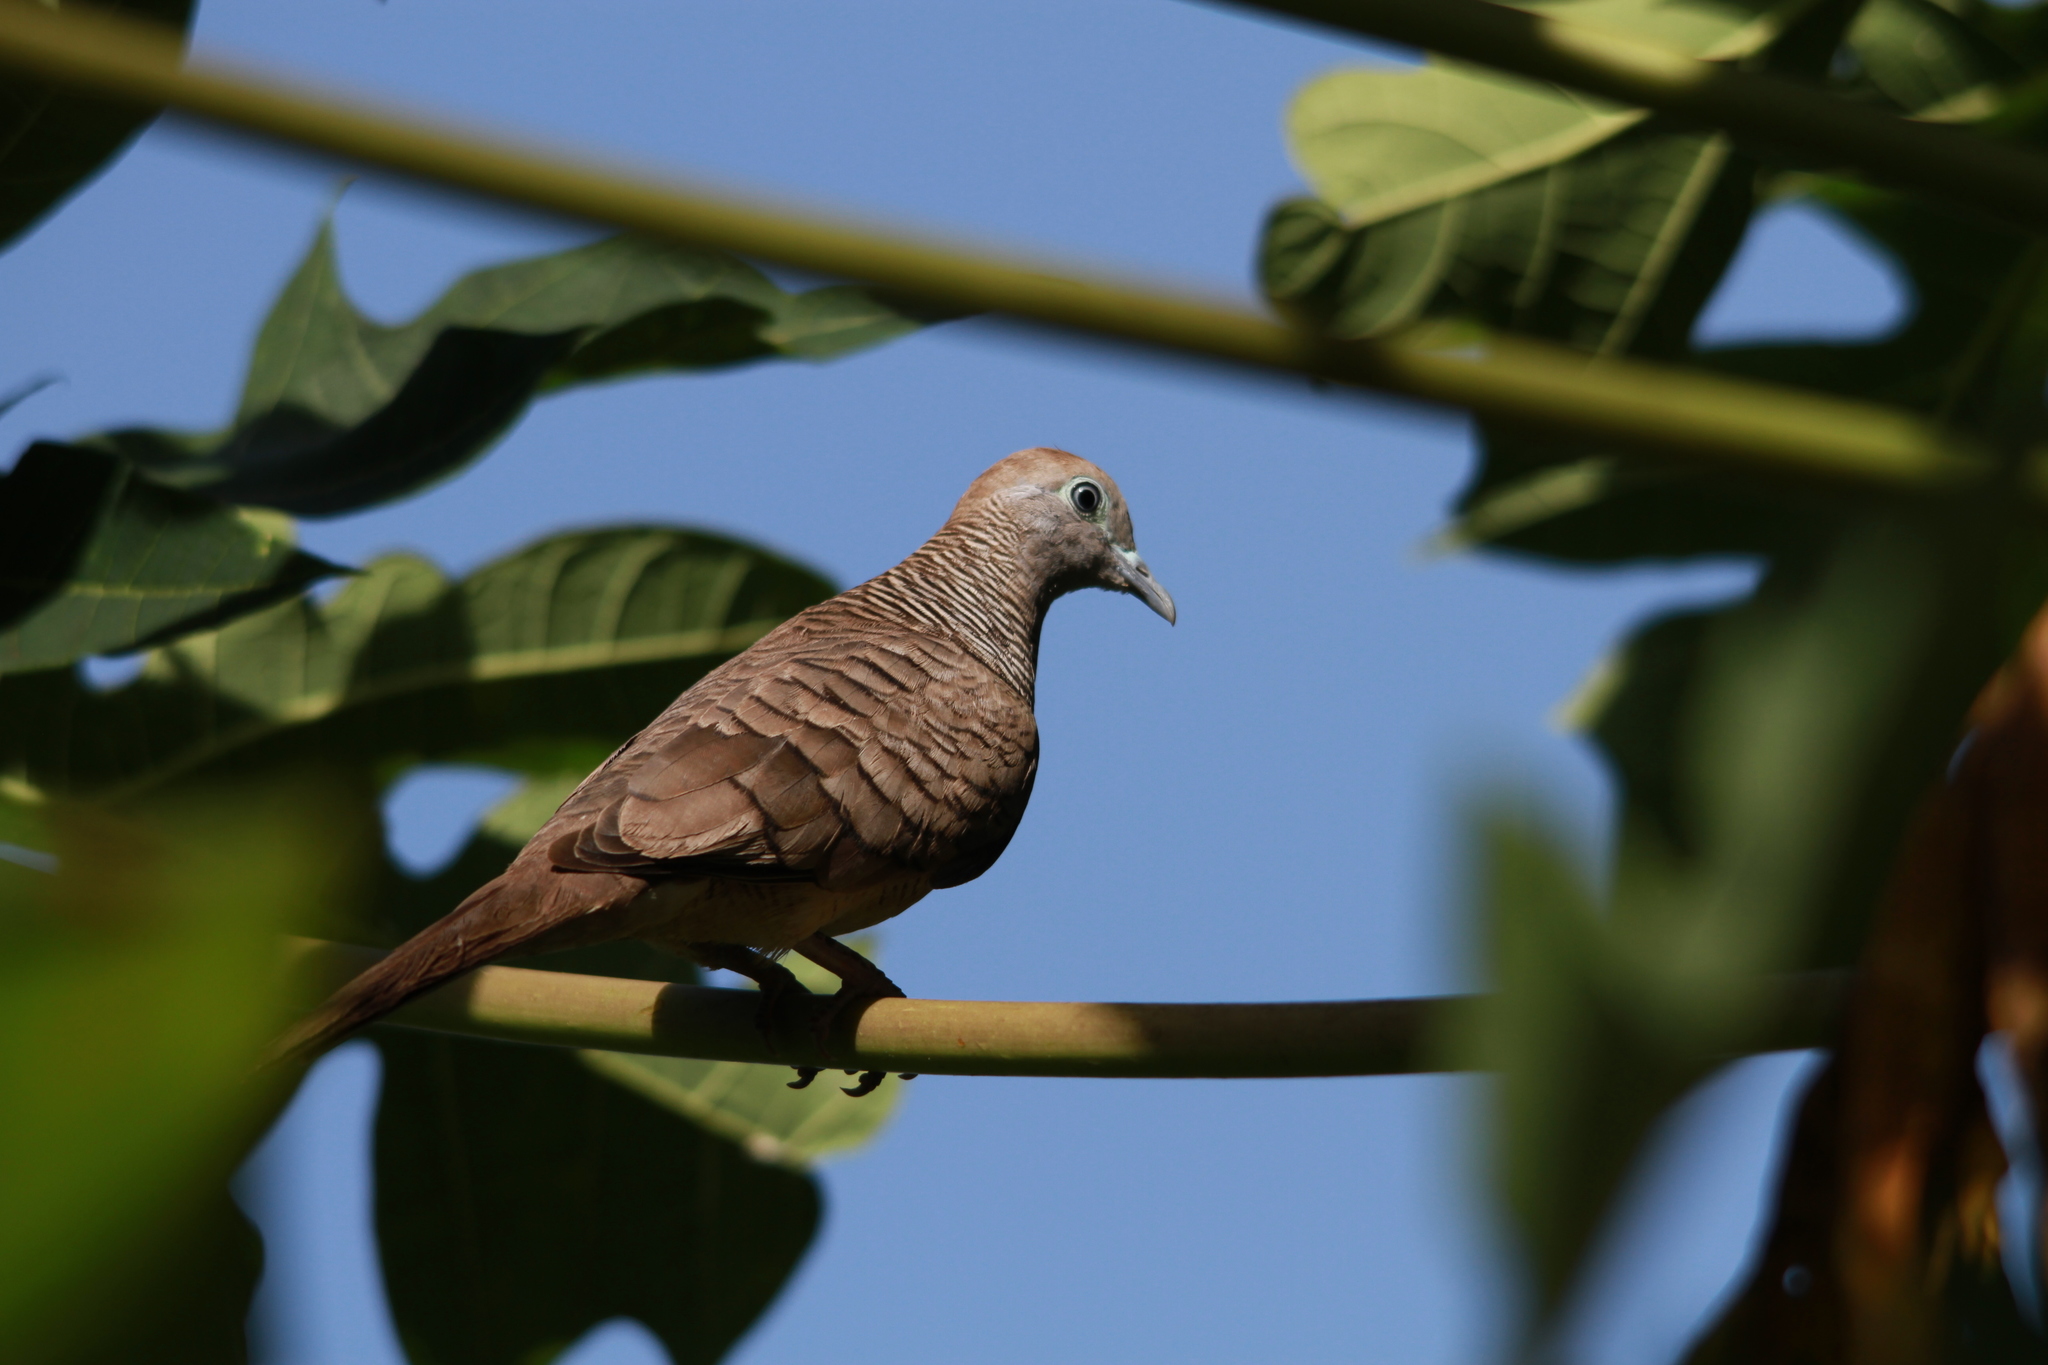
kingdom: Animalia
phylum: Chordata
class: Aves
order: Columbiformes
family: Columbidae
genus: Geopelia
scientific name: Geopelia striata
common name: Zebra dove
